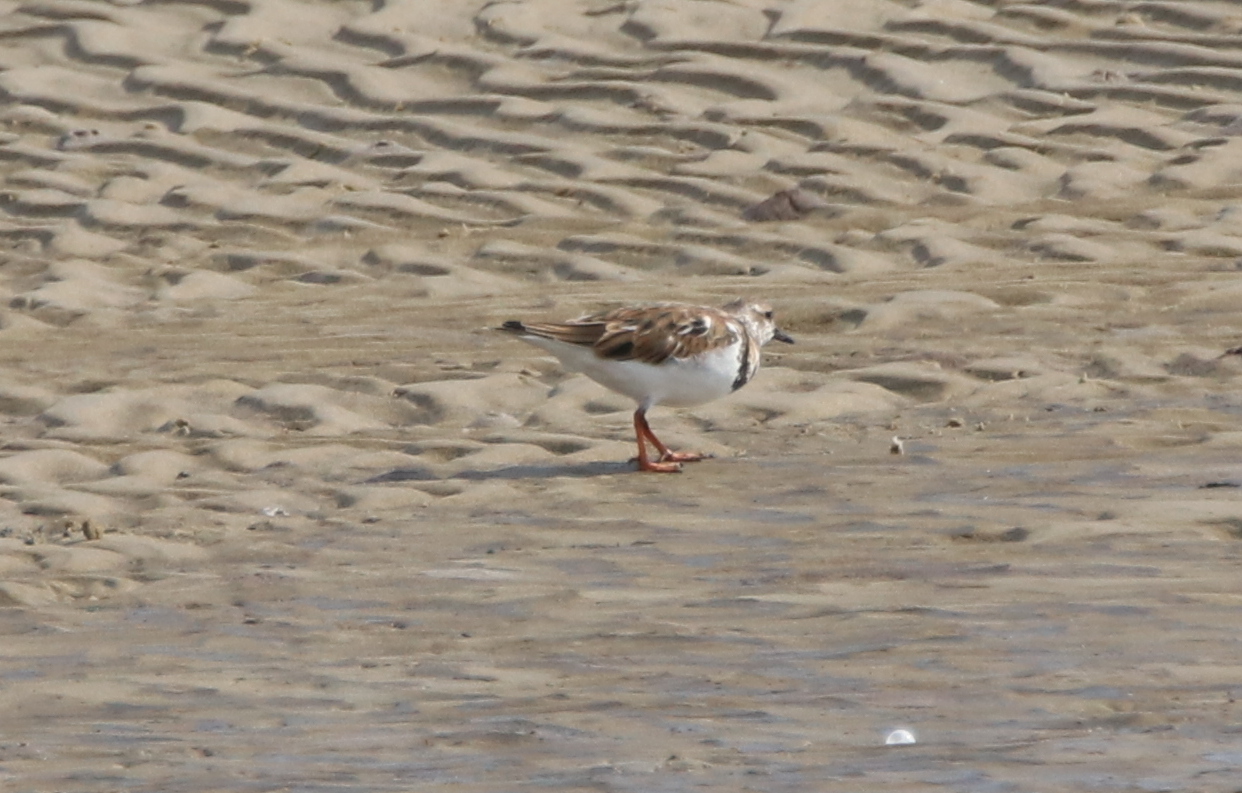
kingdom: Animalia
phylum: Chordata
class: Aves
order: Charadriiformes
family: Scolopacidae
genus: Arenaria
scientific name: Arenaria interpres
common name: Ruddy turnstone
